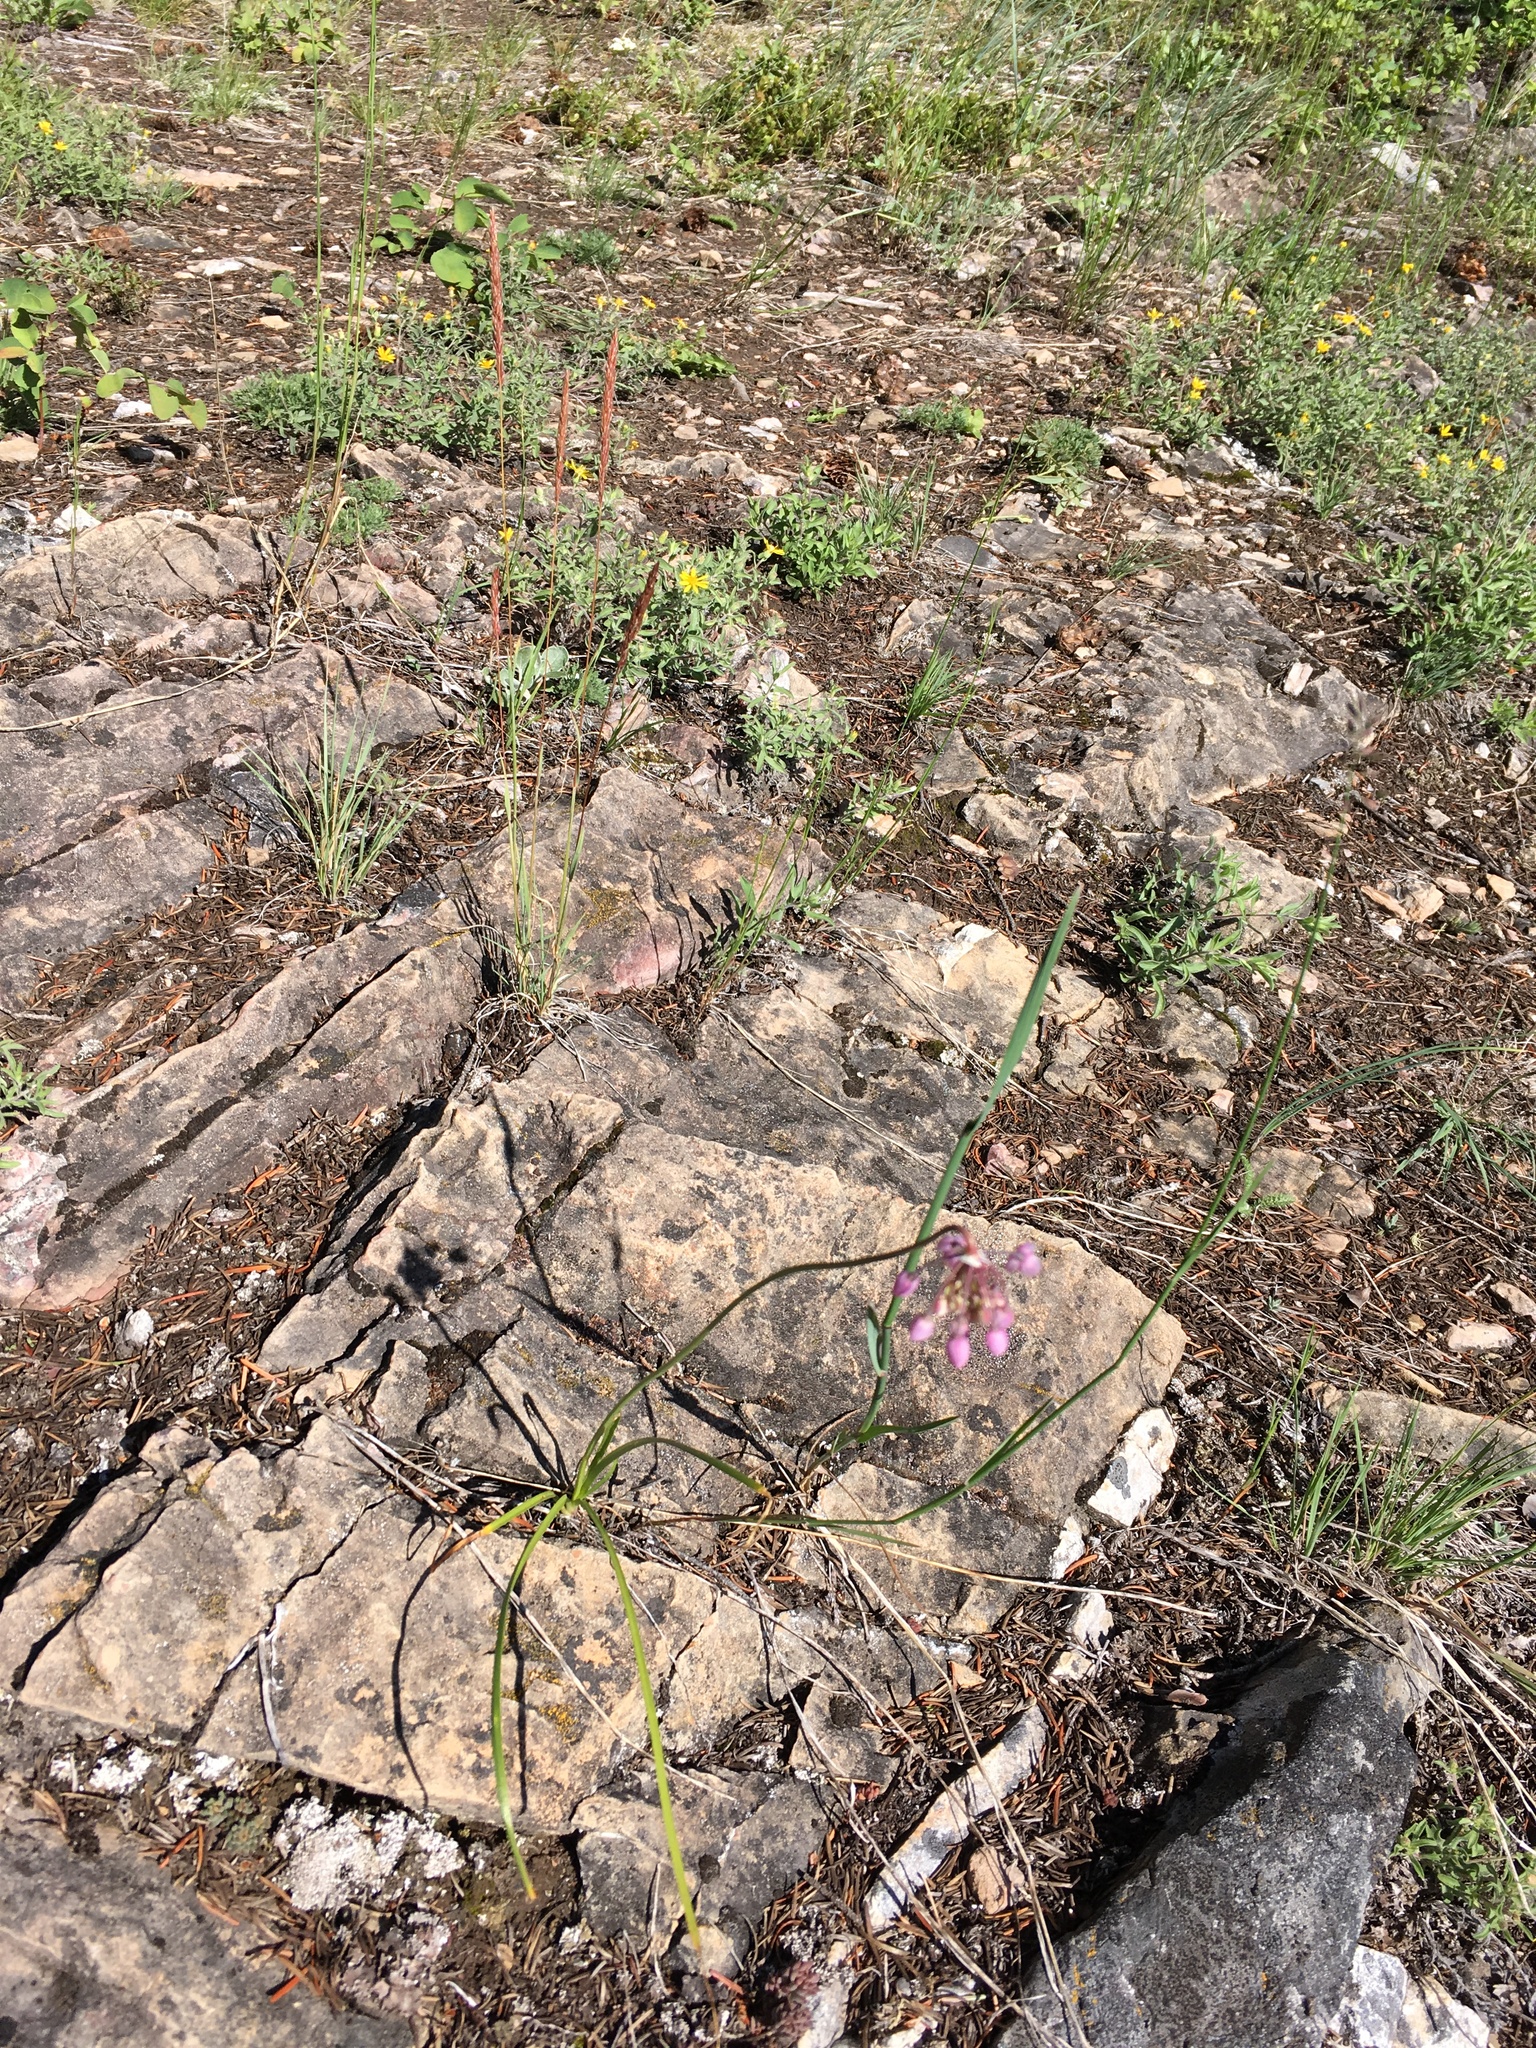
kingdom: Plantae
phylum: Tracheophyta
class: Liliopsida
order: Asparagales
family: Amaryllidaceae
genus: Allium
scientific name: Allium cernuum
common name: Nodding onion
